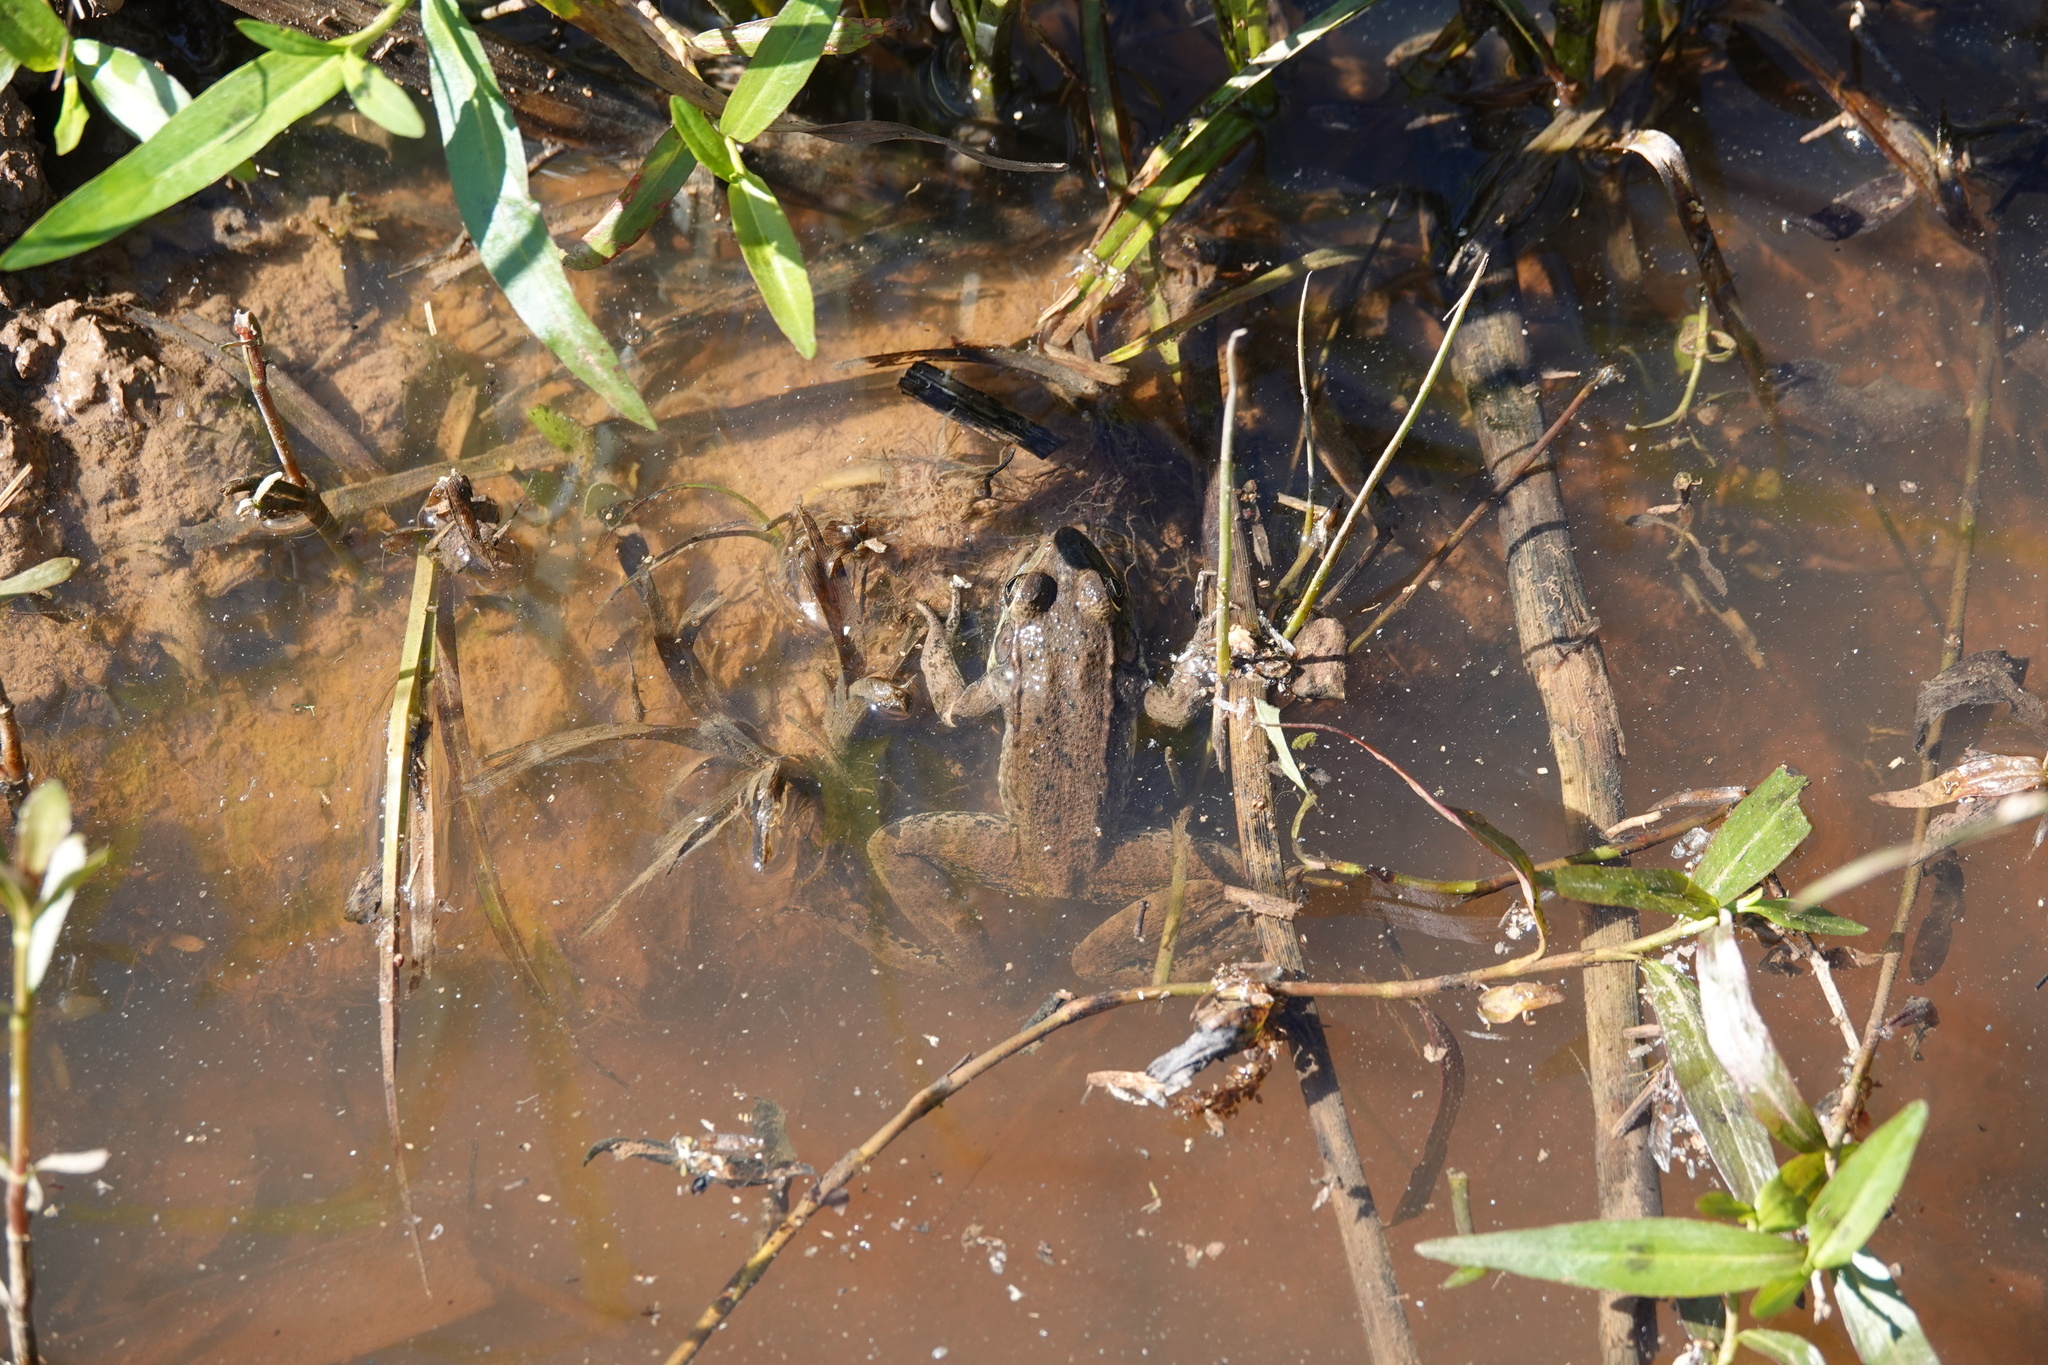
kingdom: Animalia
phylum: Chordata
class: Amphibia
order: Anura
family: Ranidae
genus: Lithobates
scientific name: Lithobates clamitans
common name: Green frog
